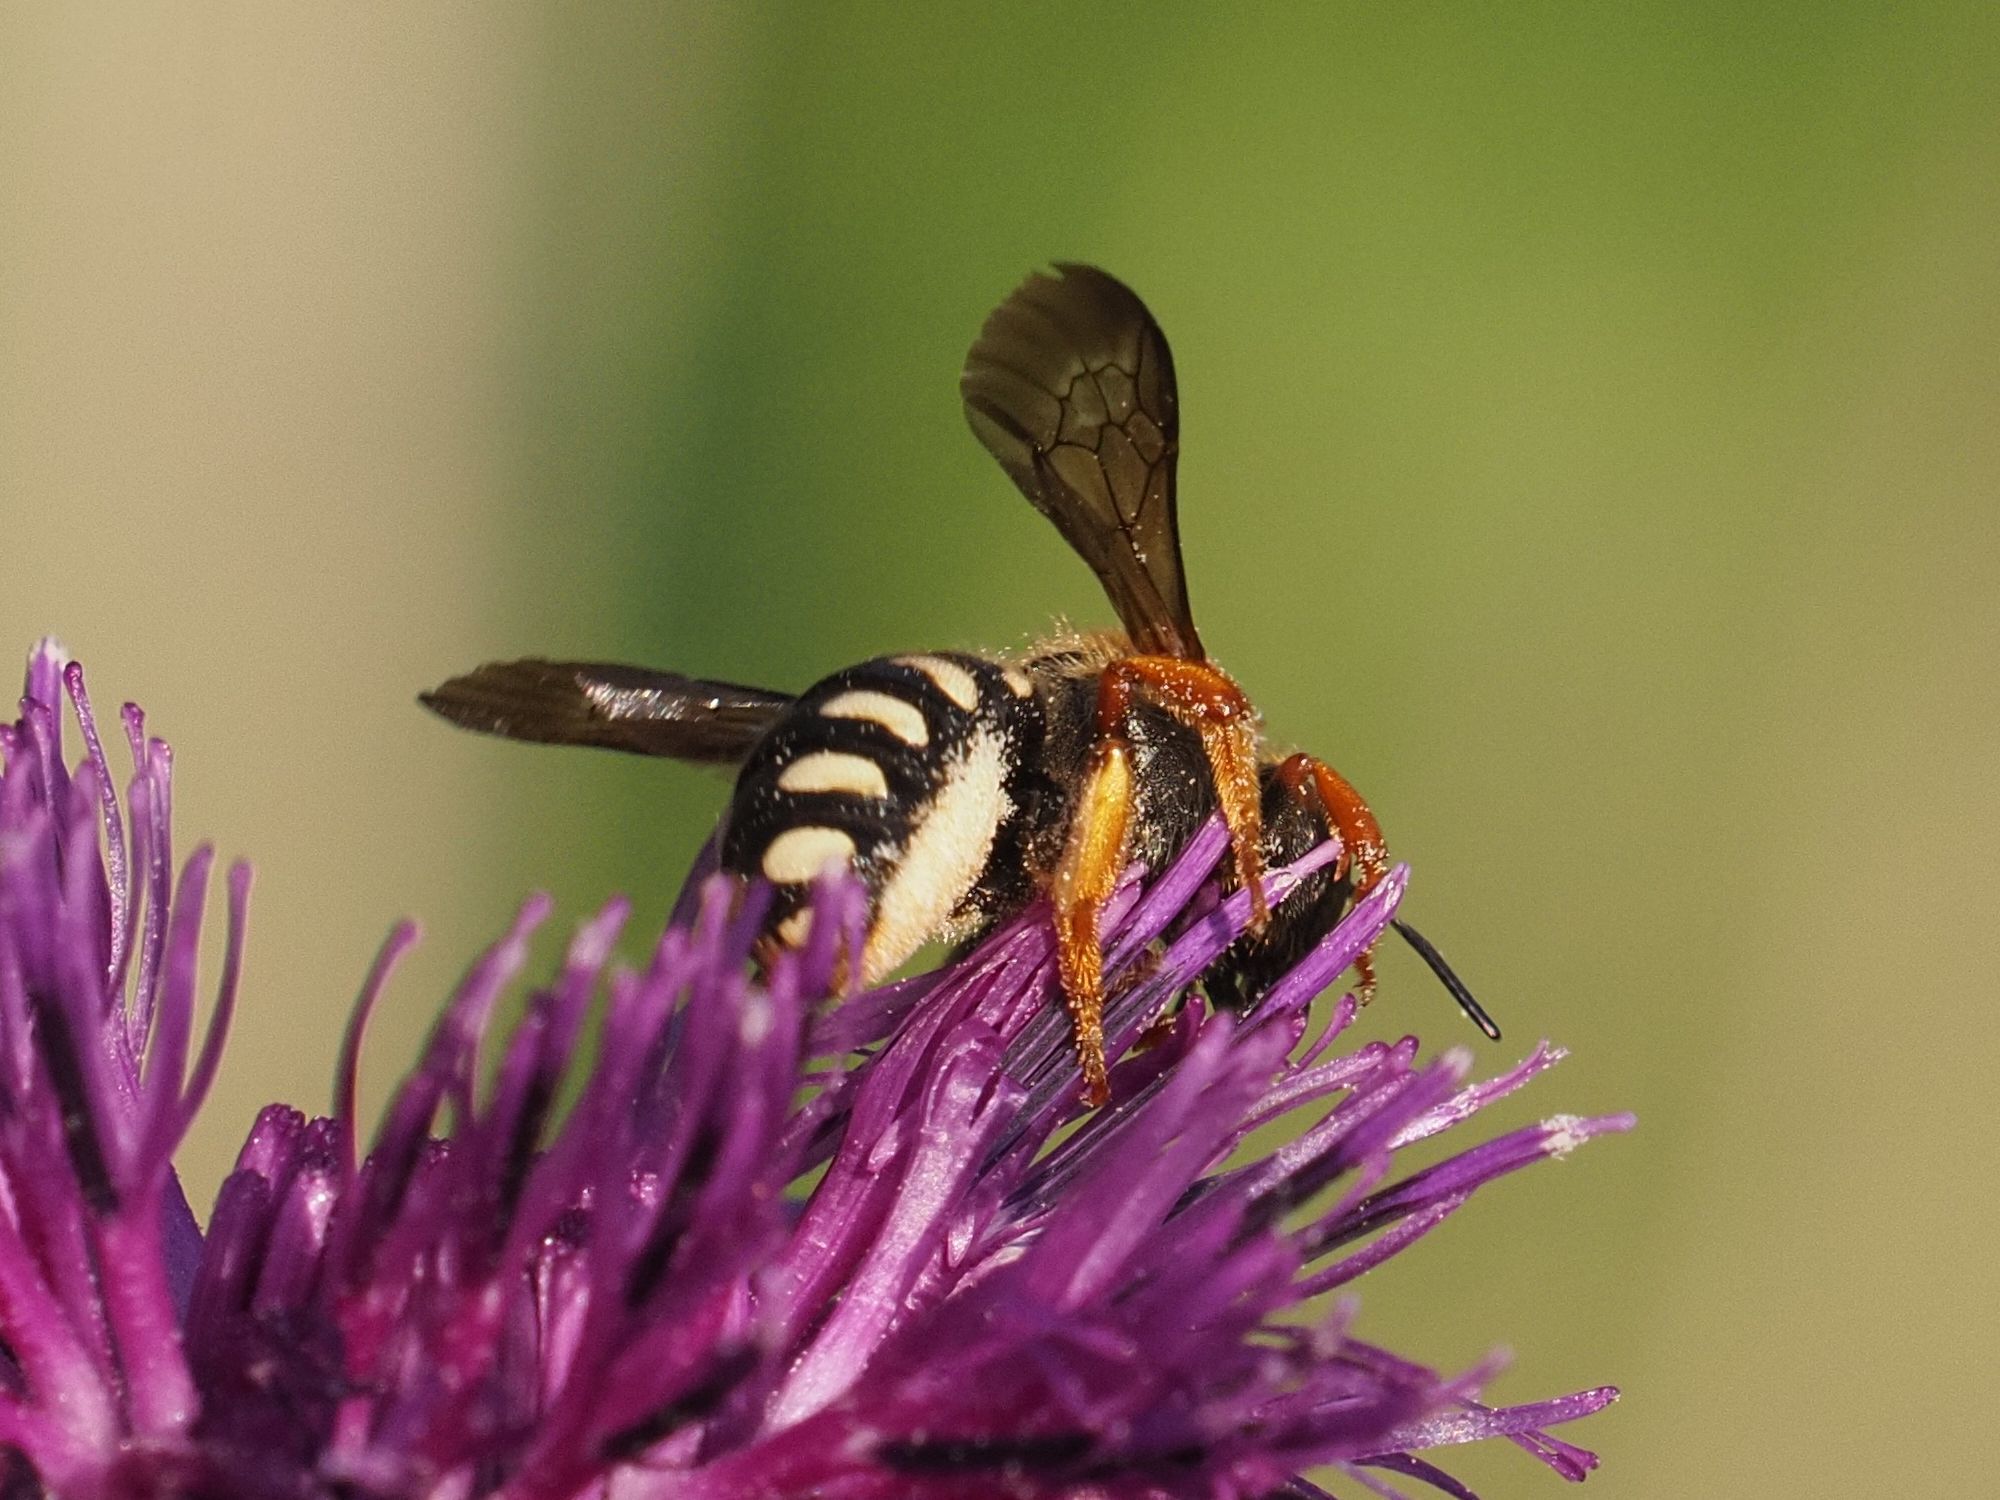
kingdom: Animalia
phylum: Arthropoda
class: Insecta
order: Hymenoptera
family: Megachilidae
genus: Rhodanthidium
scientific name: Rhodanthidium septemdentatum
